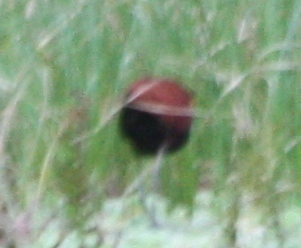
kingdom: Animalia
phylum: Chordata
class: Aves
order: Charadriiformes
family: Jacanidae
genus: Jacana
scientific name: Jacana jacana
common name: Wattled jacana
